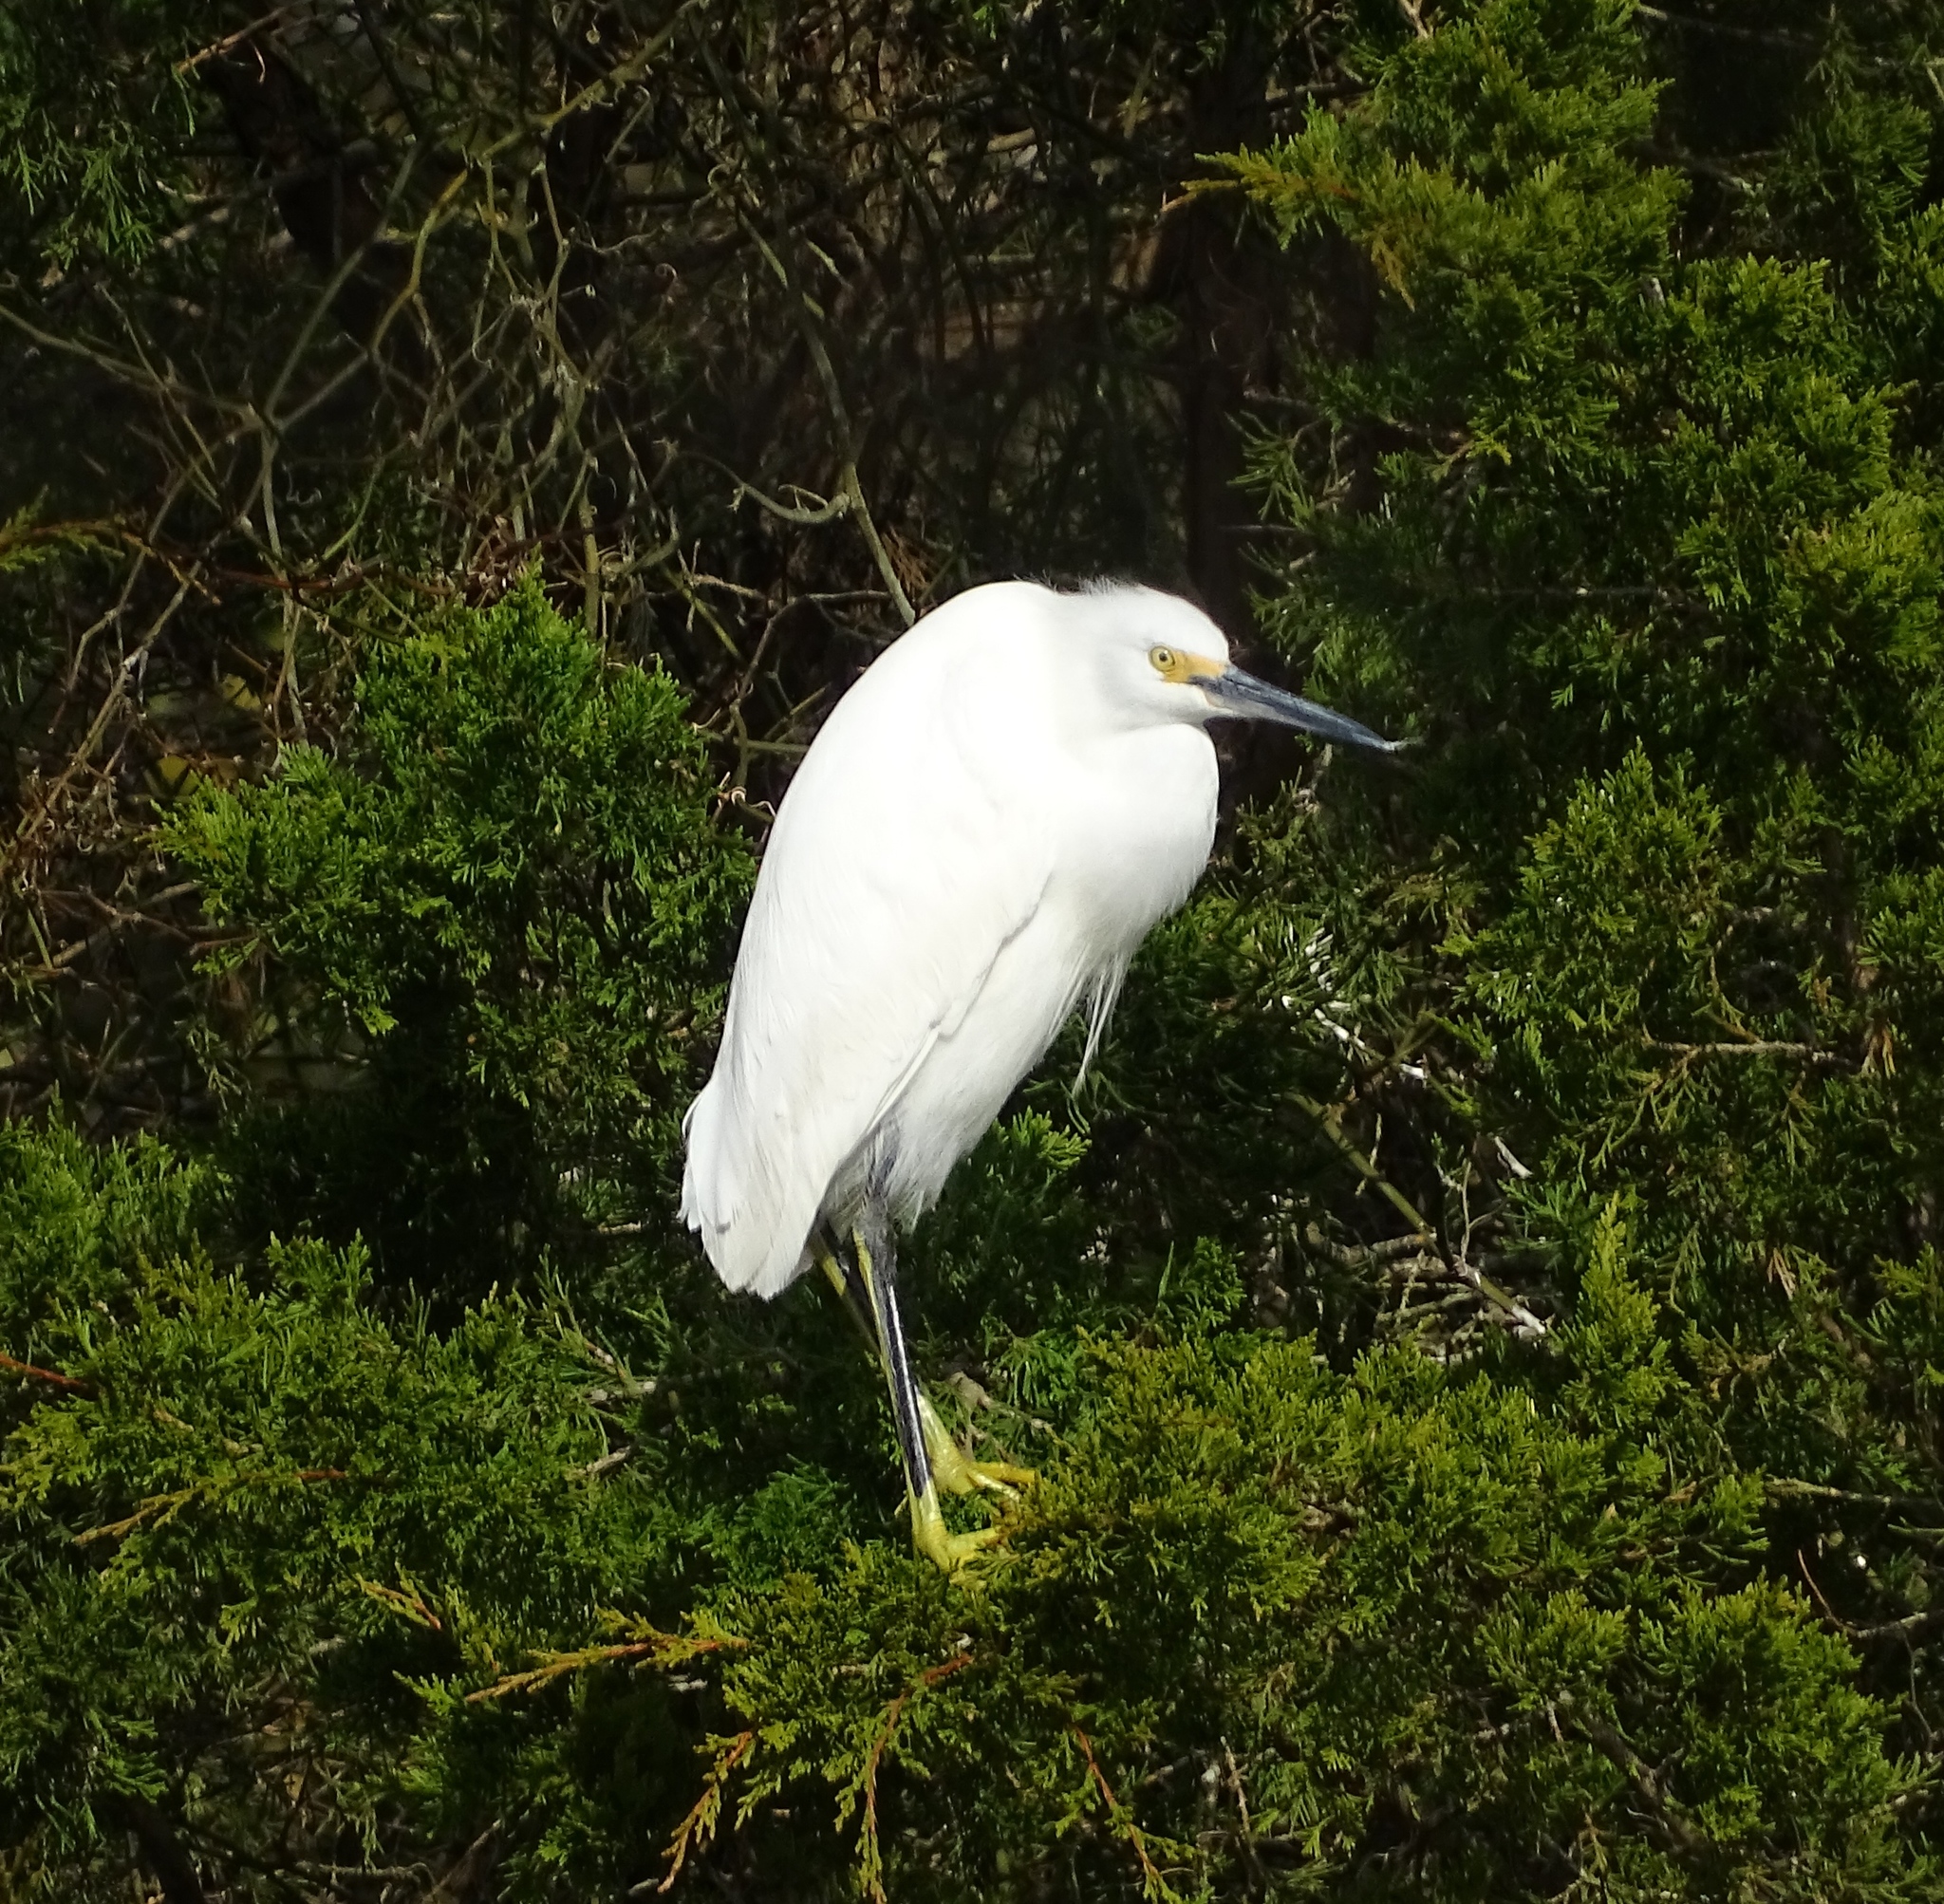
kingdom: Animalia
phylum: Chordata
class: Aves
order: Pelecaniformes
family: Ardeidae
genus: Egretta
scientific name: Egretta thula
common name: Snowy egret
